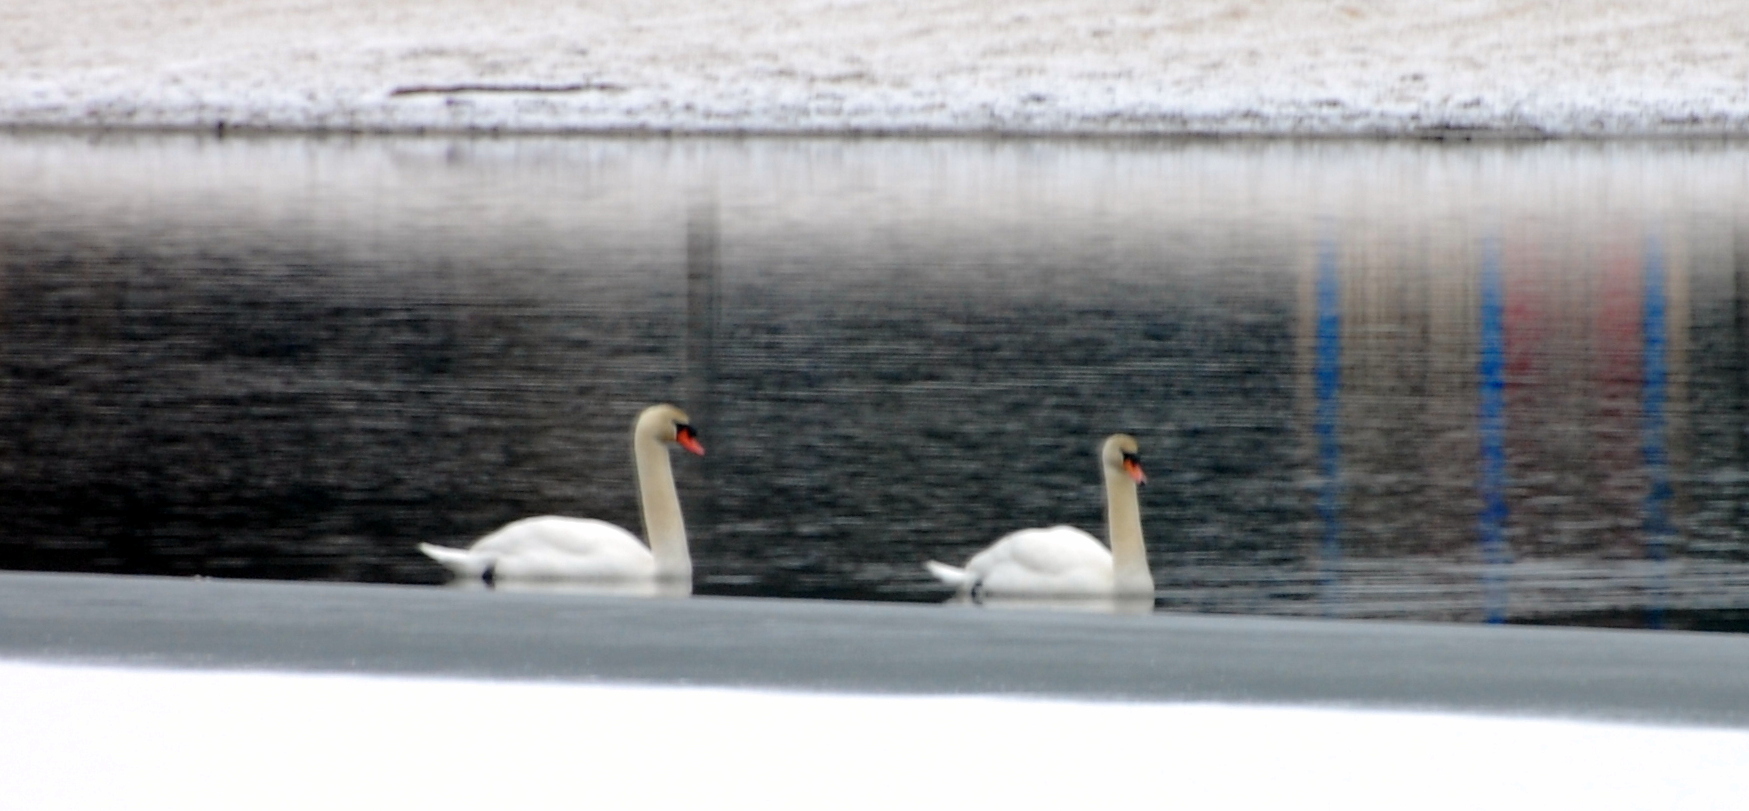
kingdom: Animalia
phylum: Chordata
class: Aves
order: Anseriformes
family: Anatidae
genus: Cygnus
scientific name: Cygnus olor
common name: Mute swan
